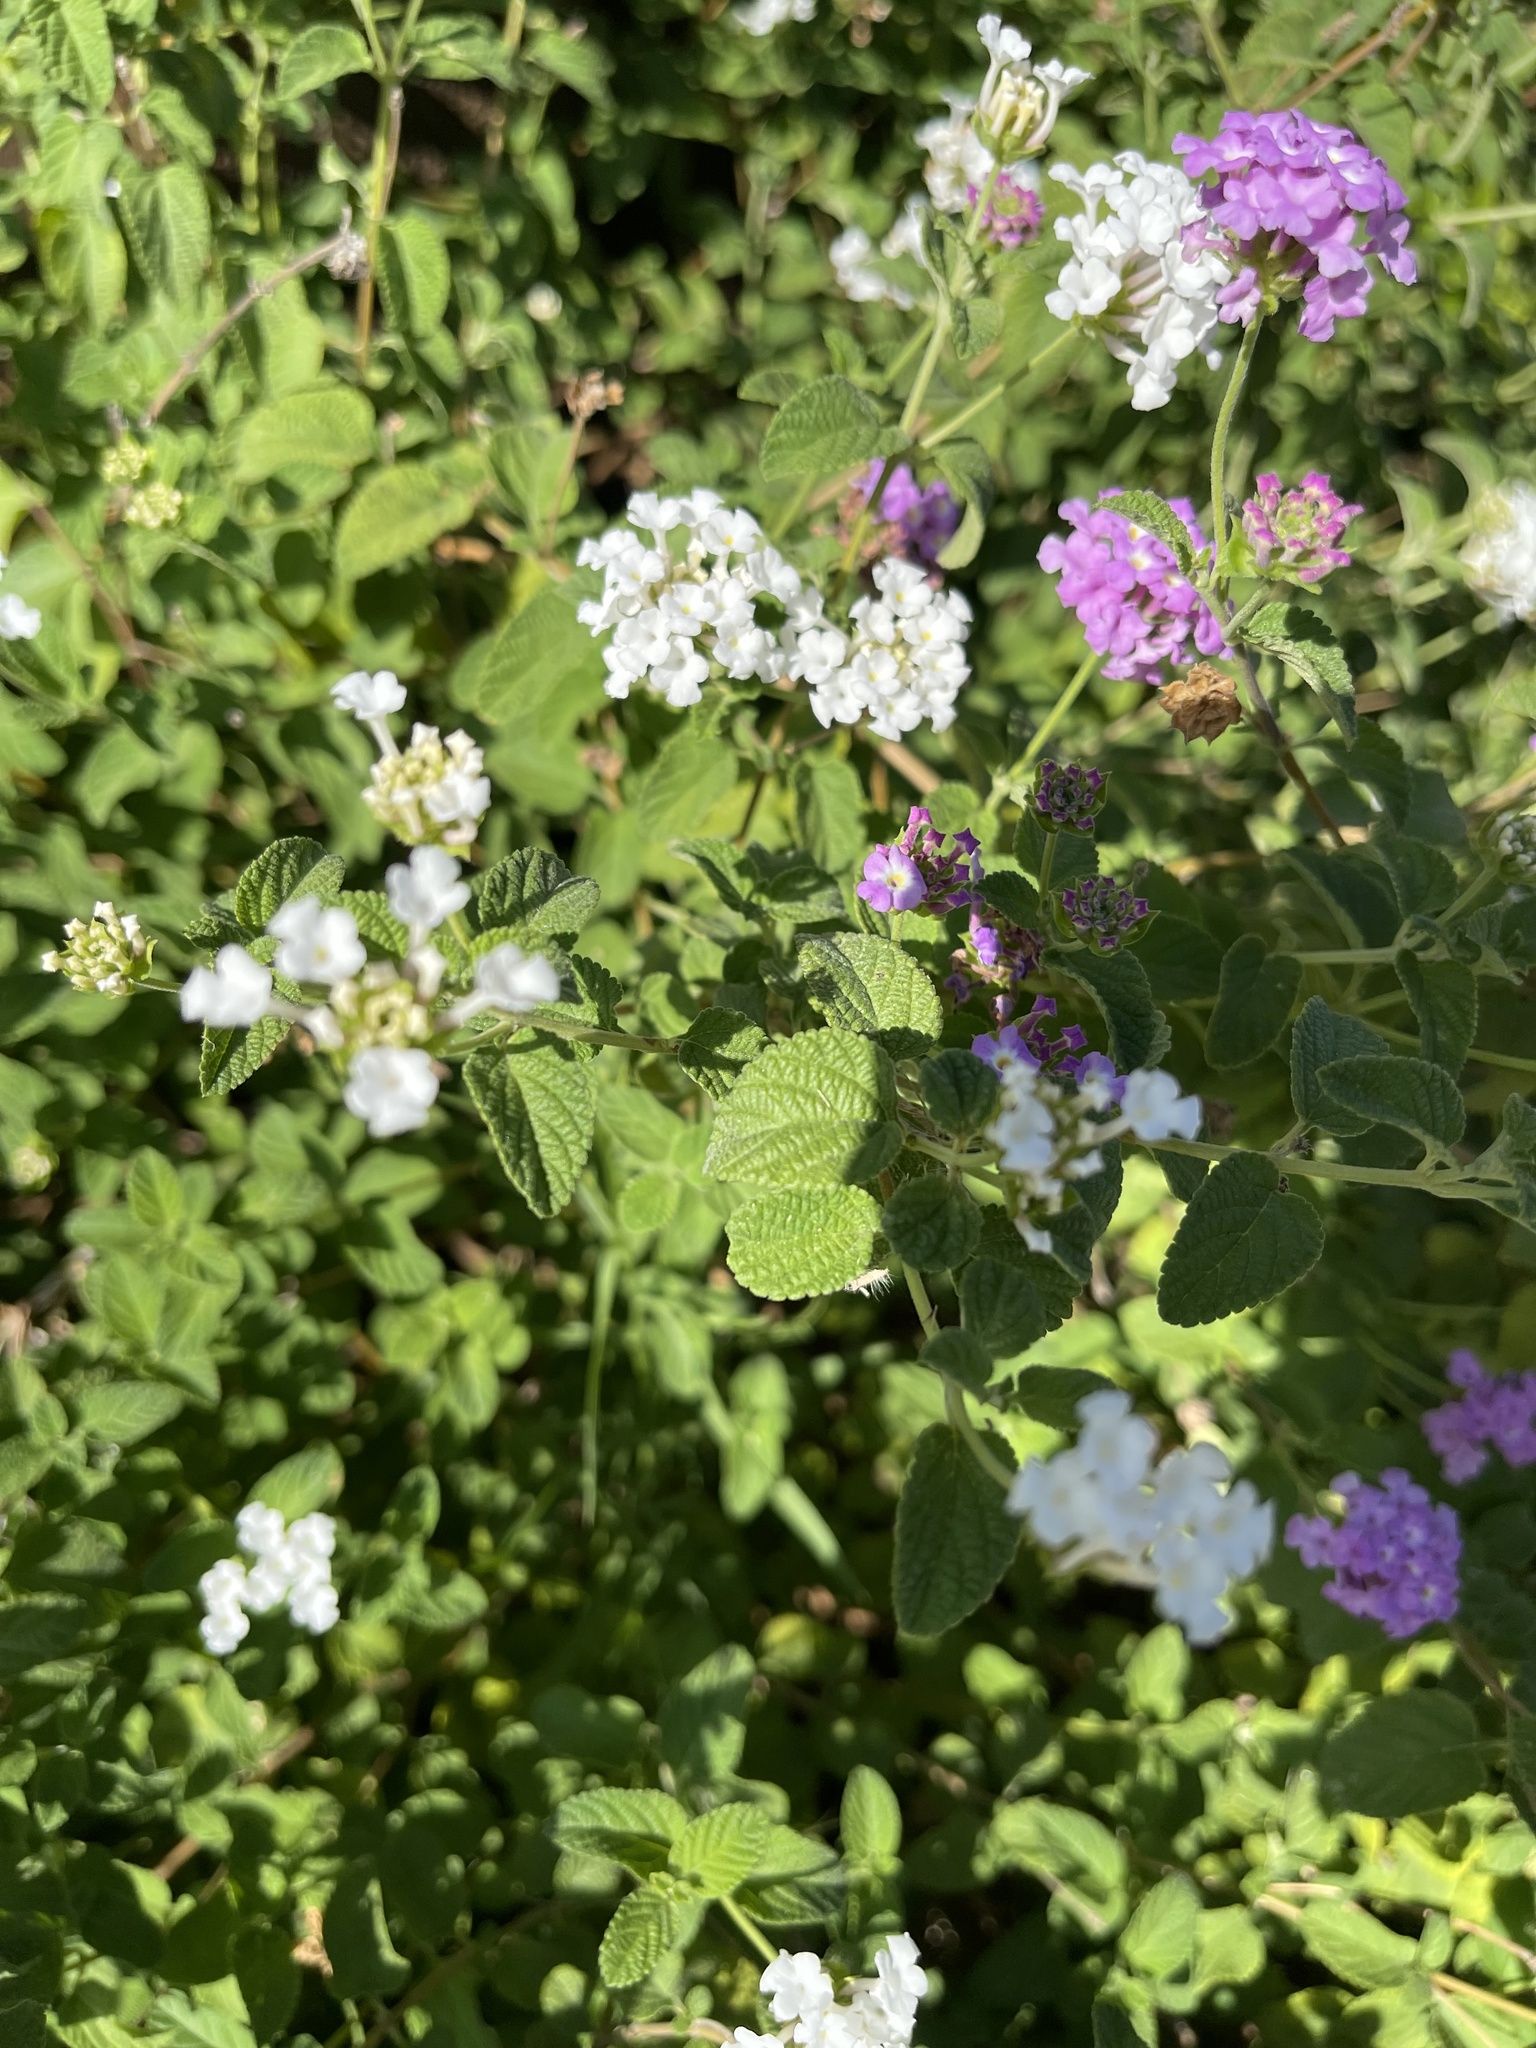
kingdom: Plantae
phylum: Tracheophyta
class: Magnoliopsida
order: Lamiales
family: Verbenaceae
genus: Lantana
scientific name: Lantana montevidensis
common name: Trailing shrubverbena
